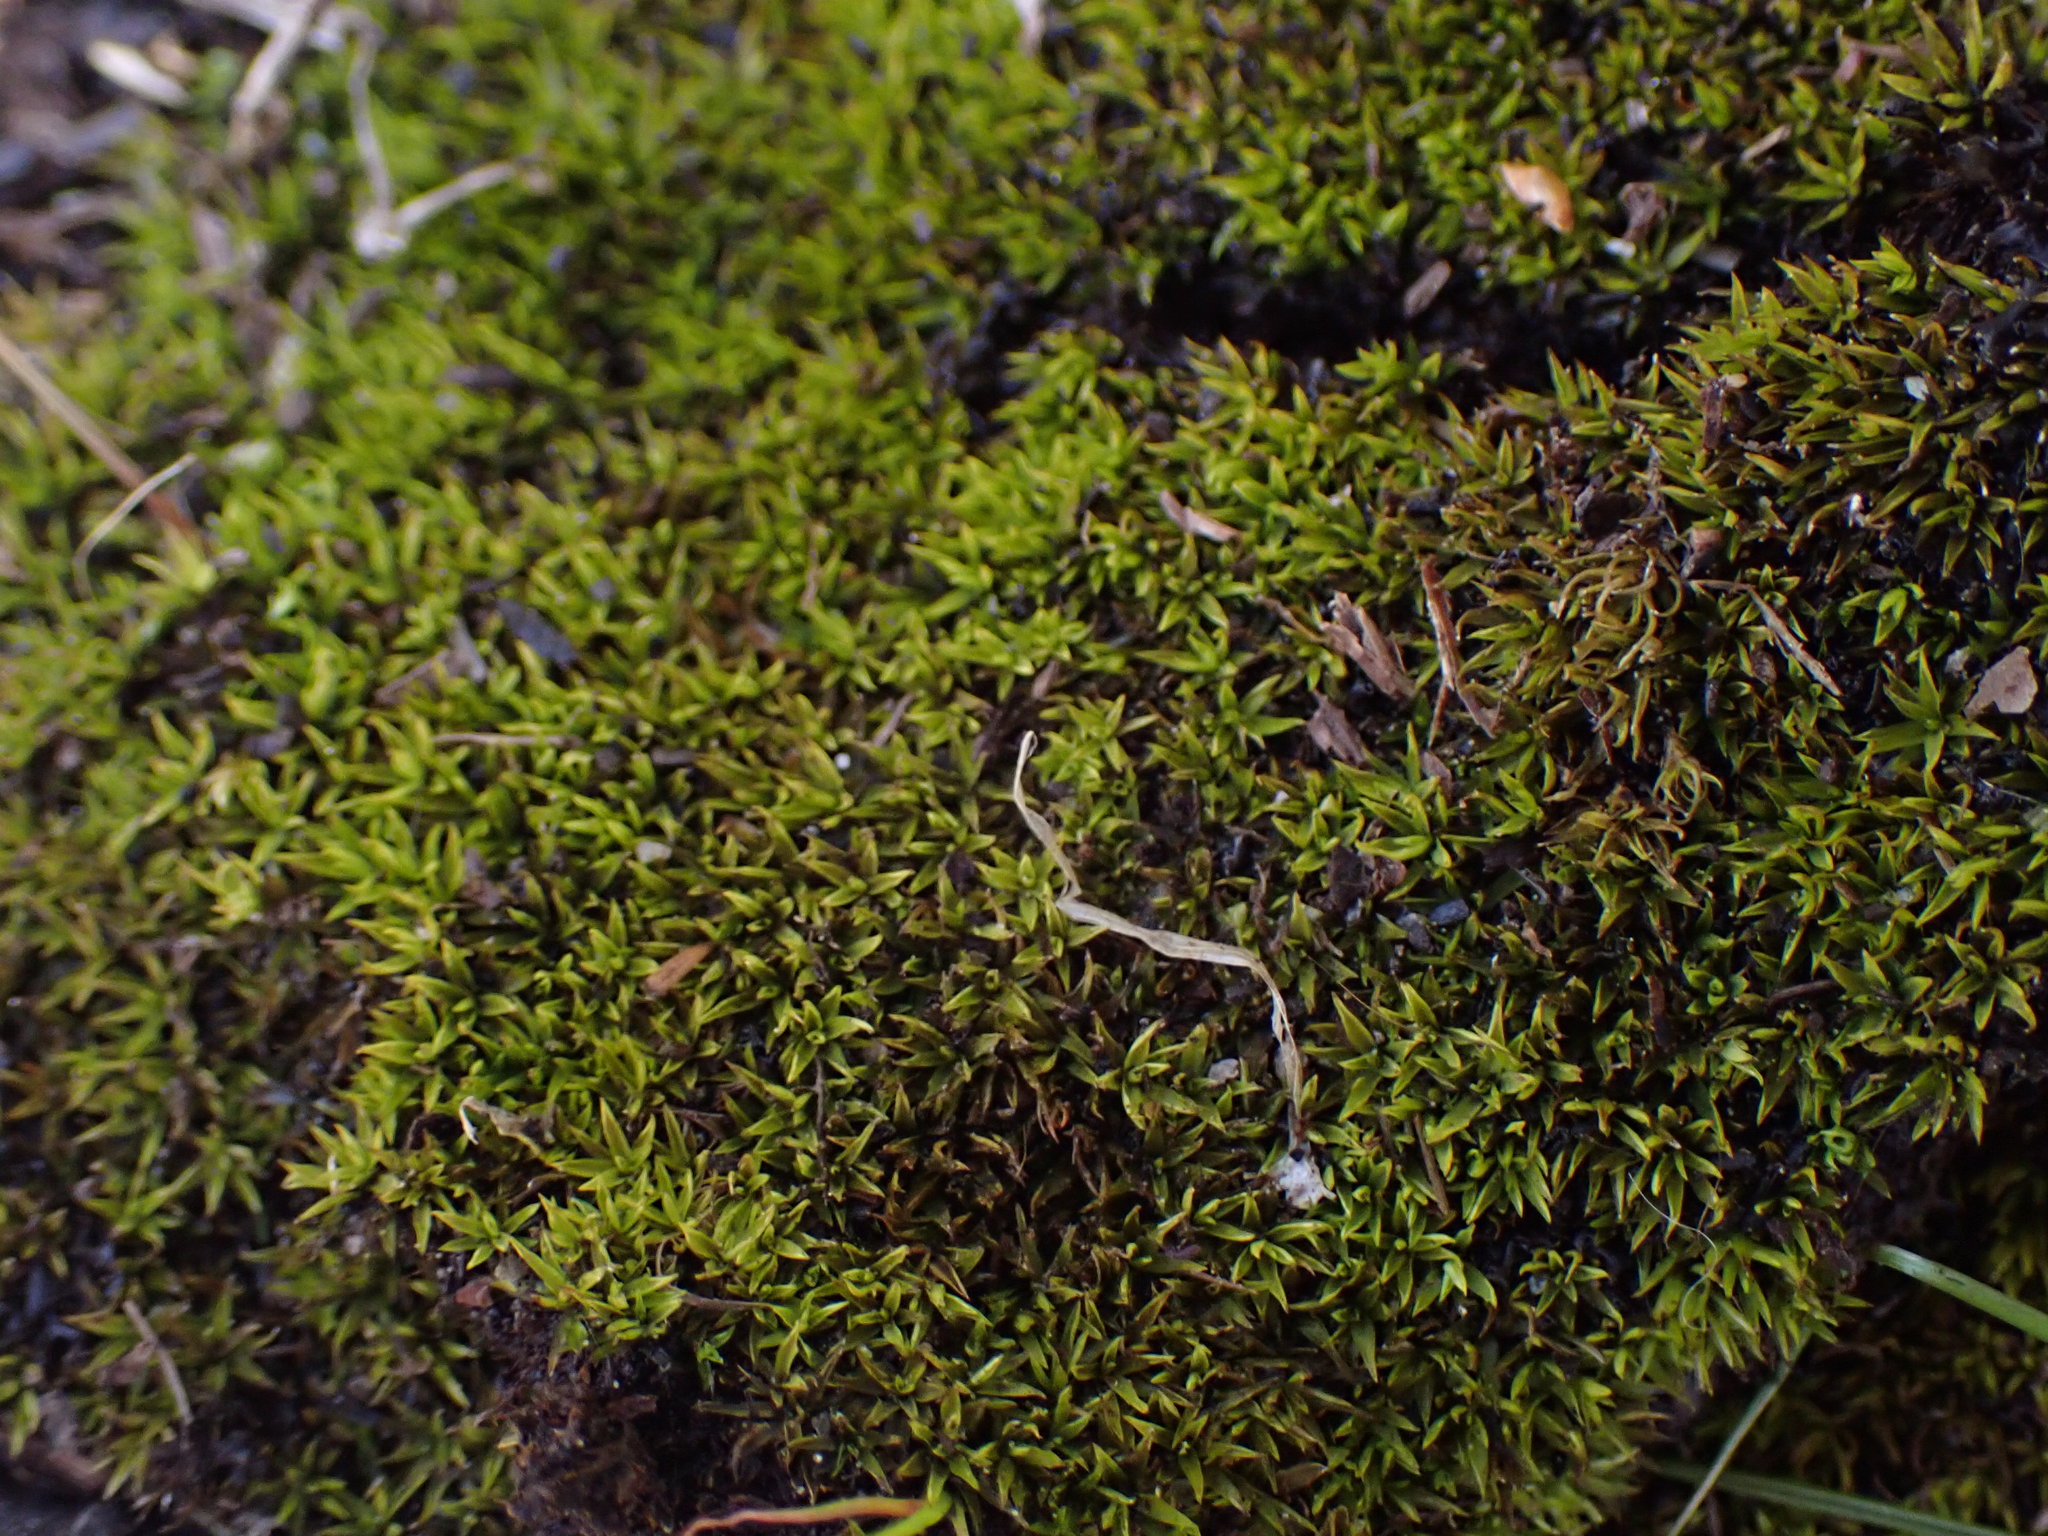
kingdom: Plantae
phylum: Bryophyta
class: Bryopsida
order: Scouleriales
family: Timmiellaceae
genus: Timmiella
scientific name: Timmiella crassinervis
